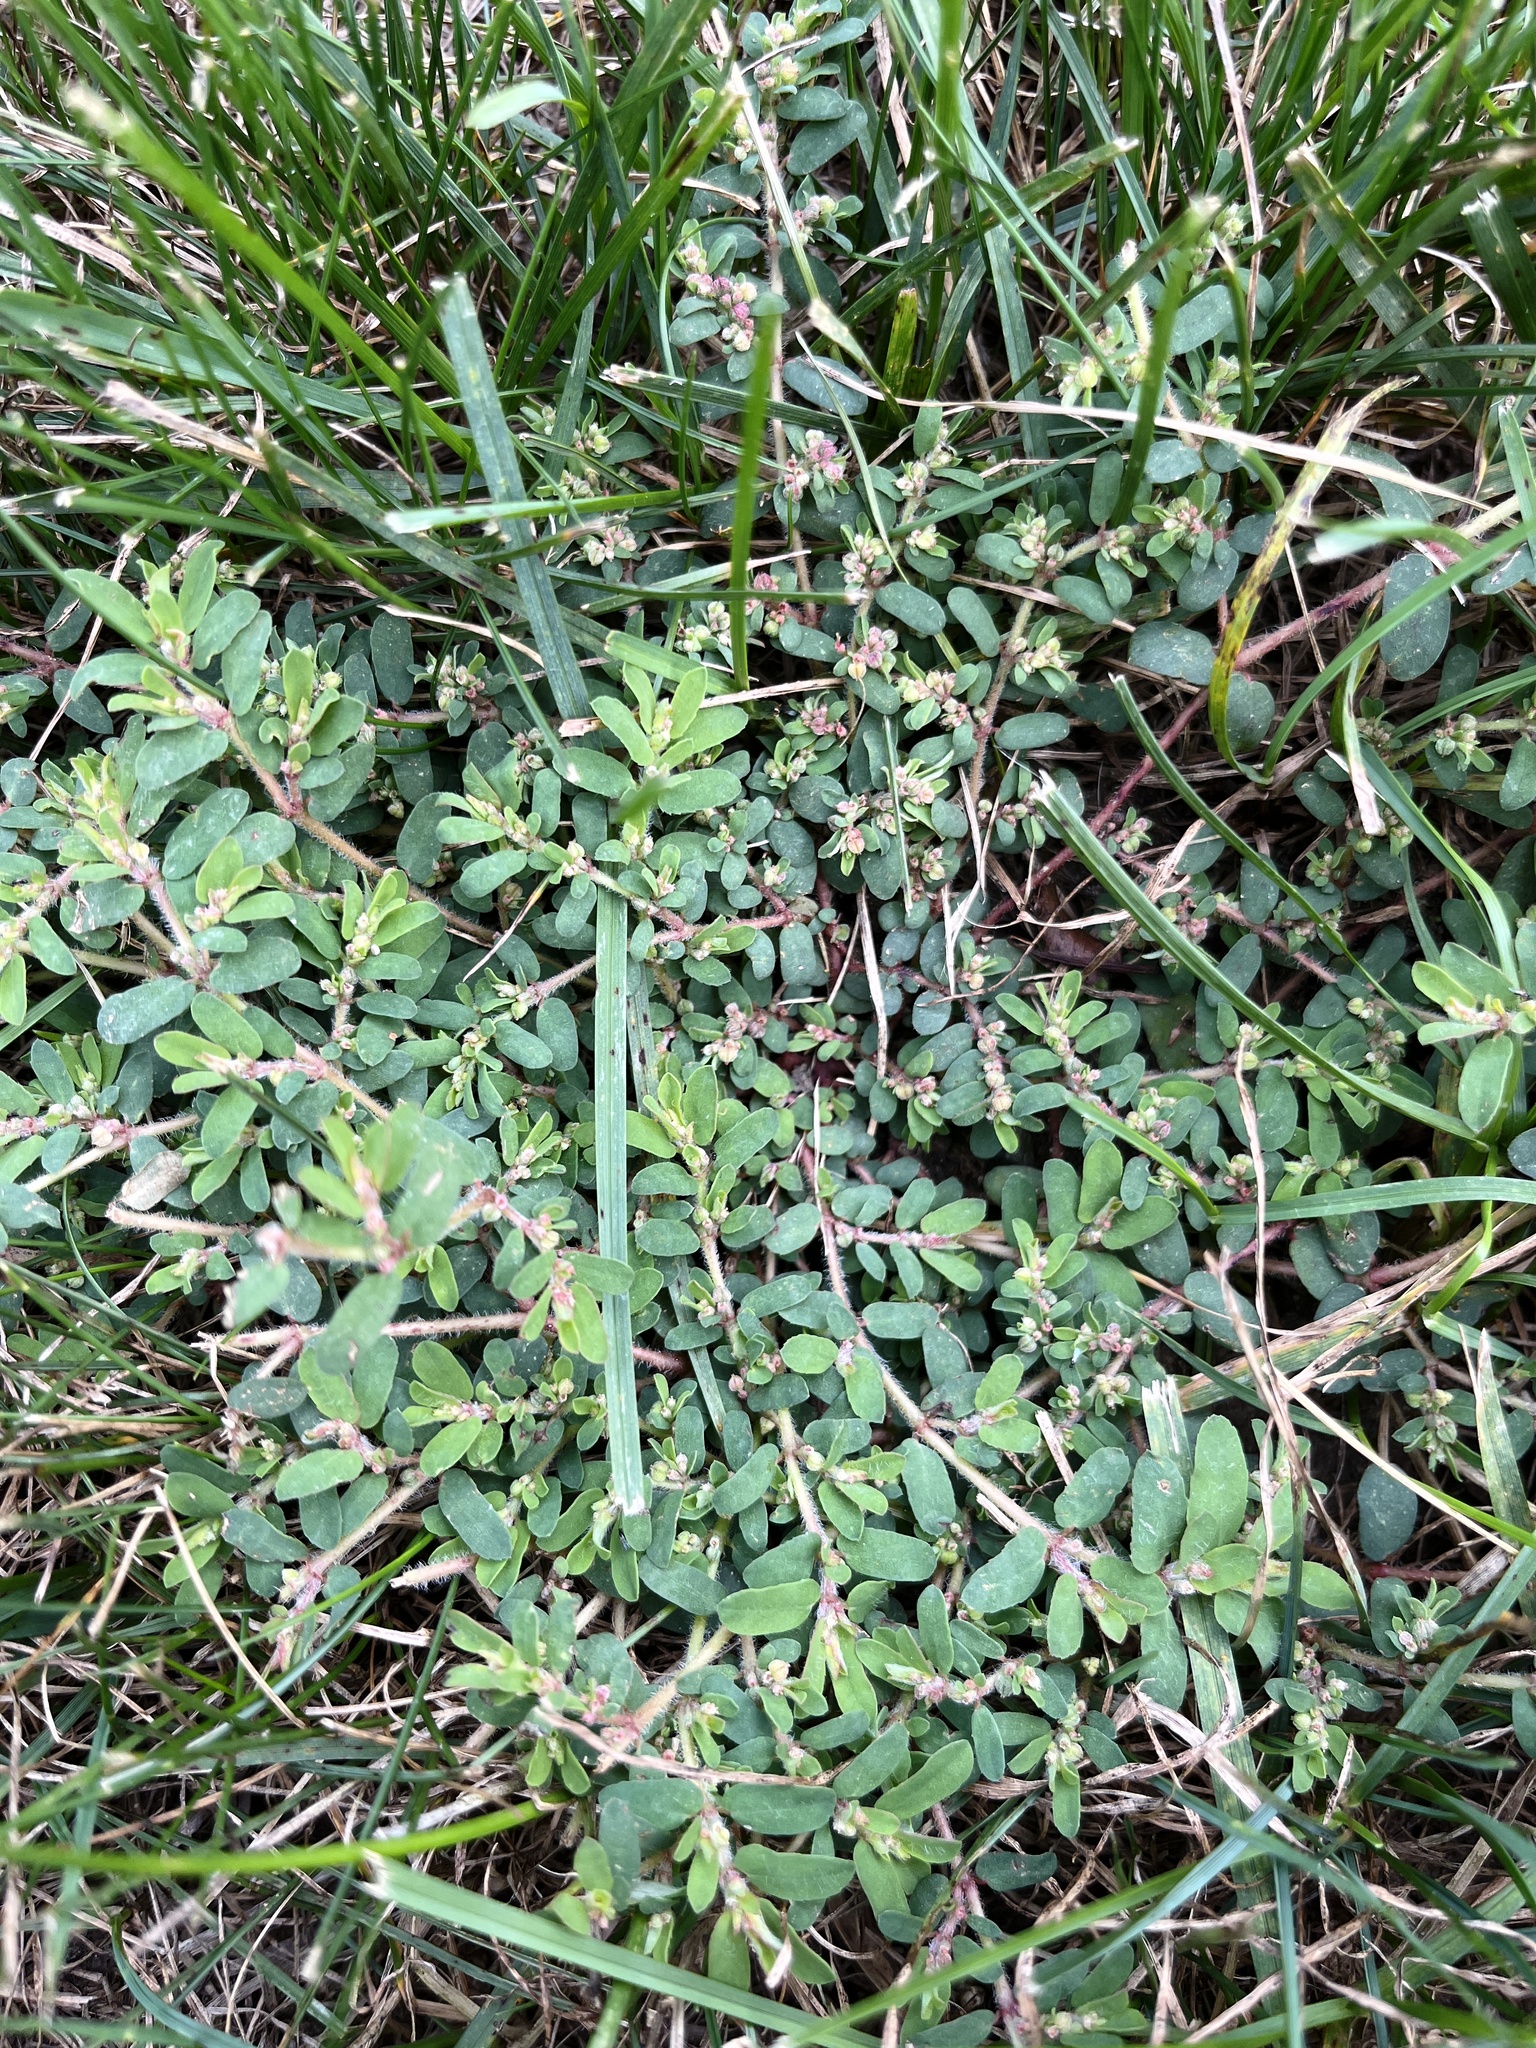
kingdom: Plantae
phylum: Tracheophyta
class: Magnoliopsida
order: Malpighiales
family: Euphorbiaceae
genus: Euphorbia
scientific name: Euphorbia maculata
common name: Spotted spurge
